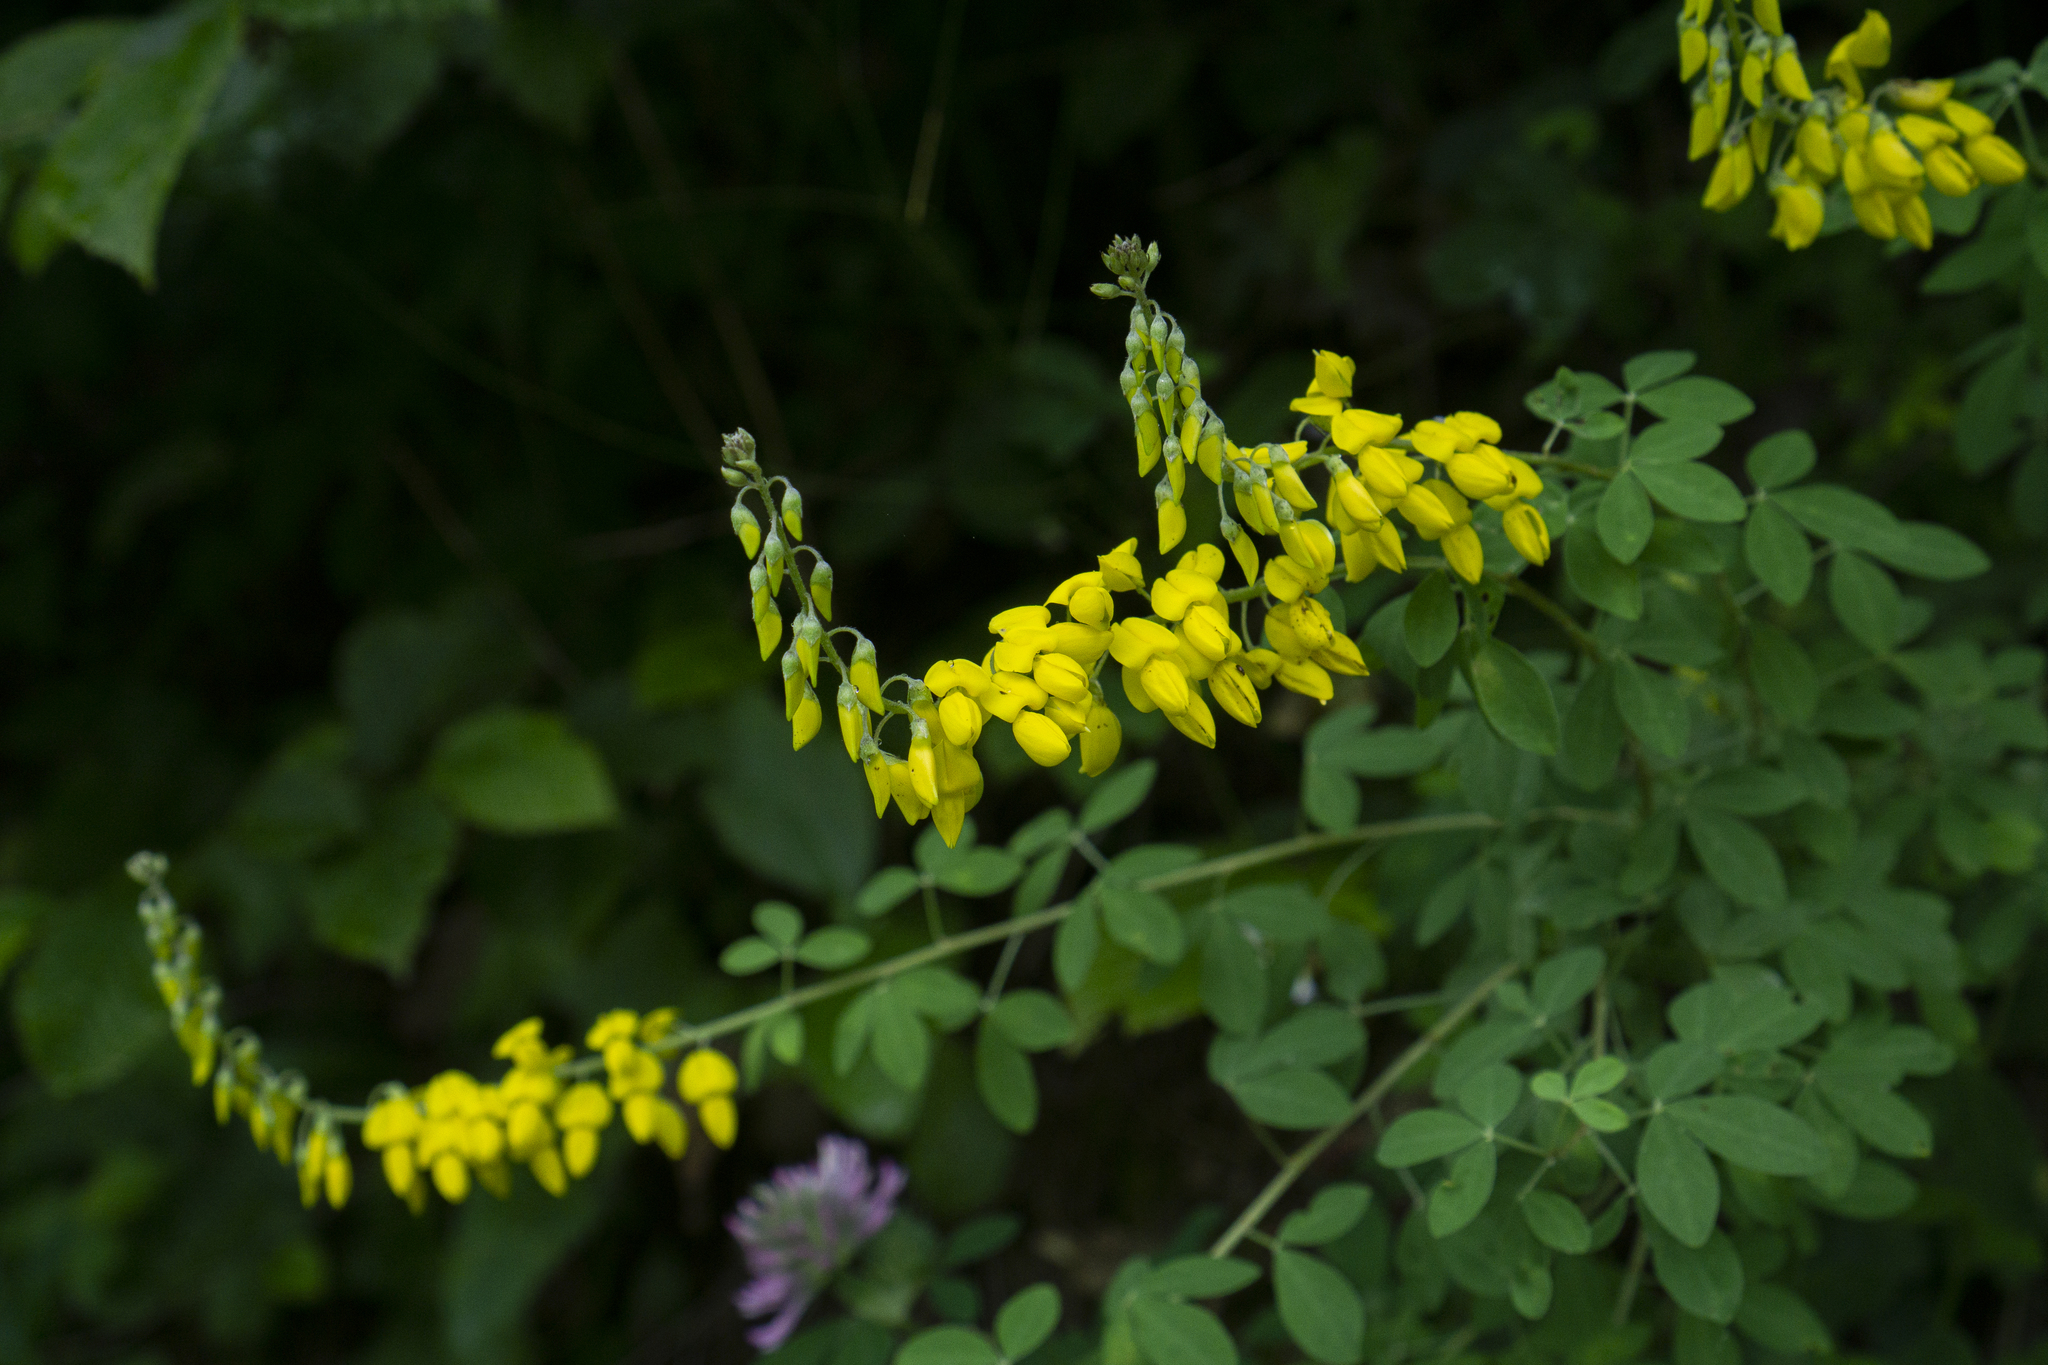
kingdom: Plantae
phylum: Tracheophyta
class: Magnoliopsida
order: Fabales
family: Fabaceae
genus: Cytisus
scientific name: Cytisus nigricans
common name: Black broom
